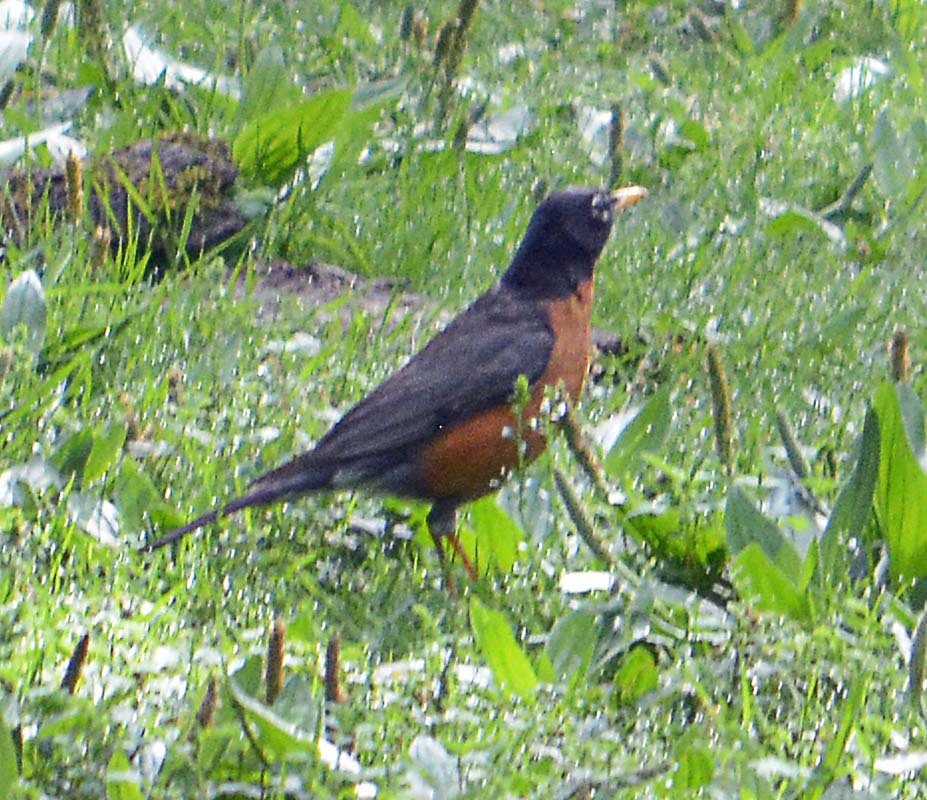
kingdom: Animalia
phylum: Chordata
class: Aves
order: Passeriformes
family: Turdidae
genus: Turdus
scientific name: Turdus migratorius
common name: American robin
